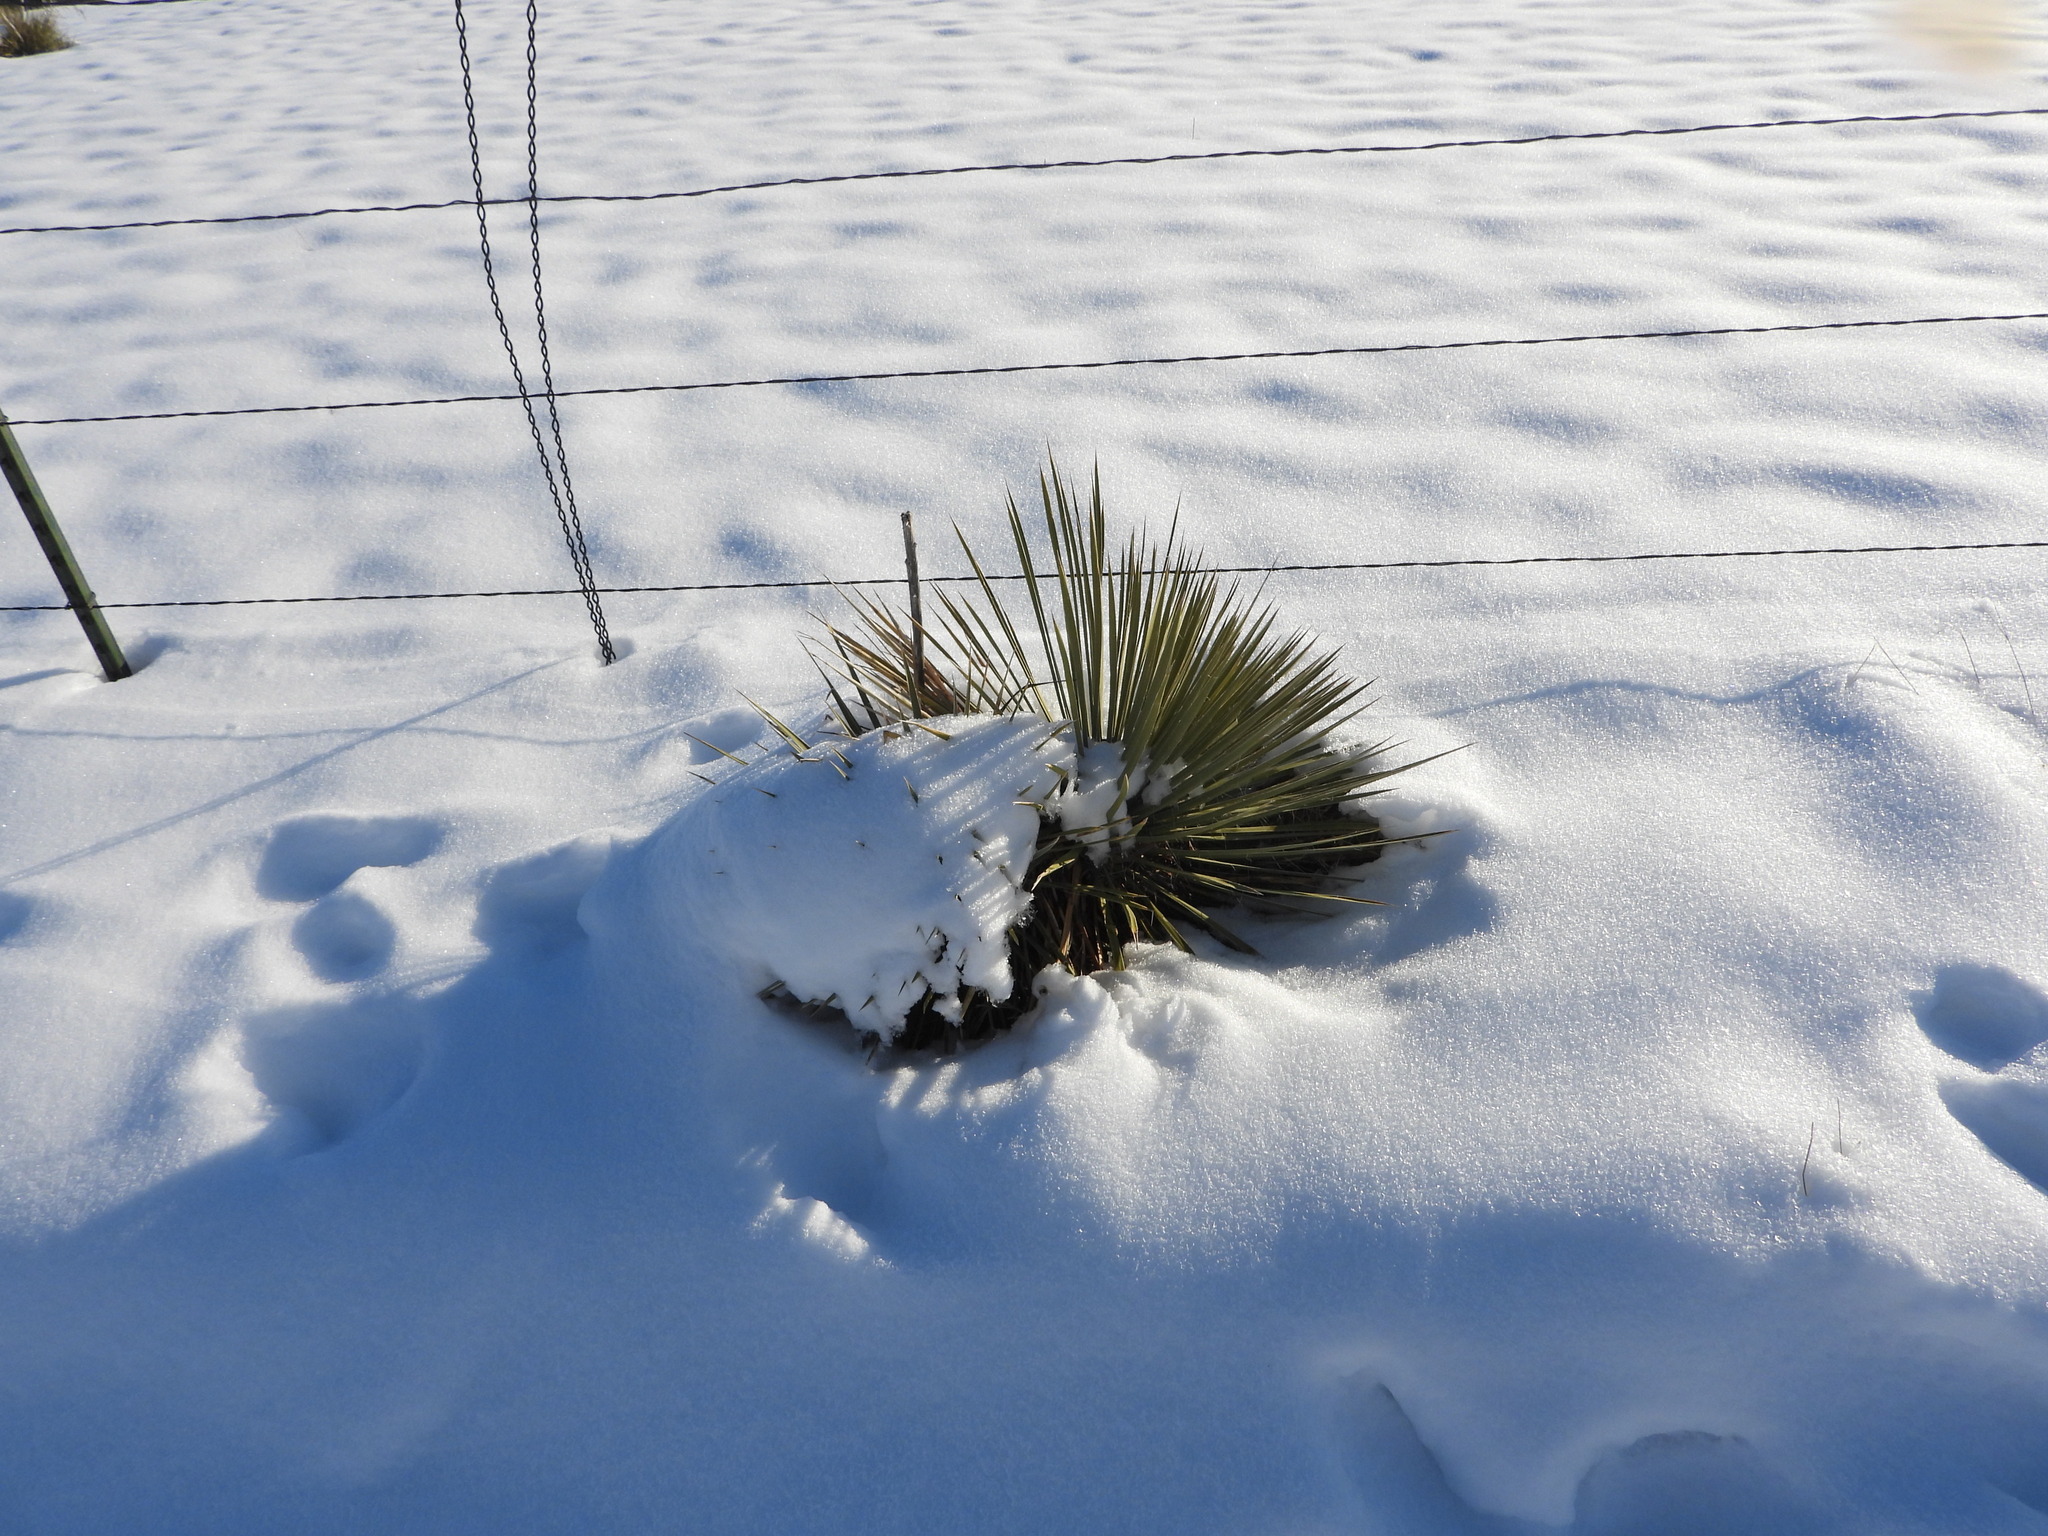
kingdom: Plantae
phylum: Tracheophyta
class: Liliopsida
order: Asparagales
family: Asparagaceae
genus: Yucca
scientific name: Yucca glauca
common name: Great plains yucca
